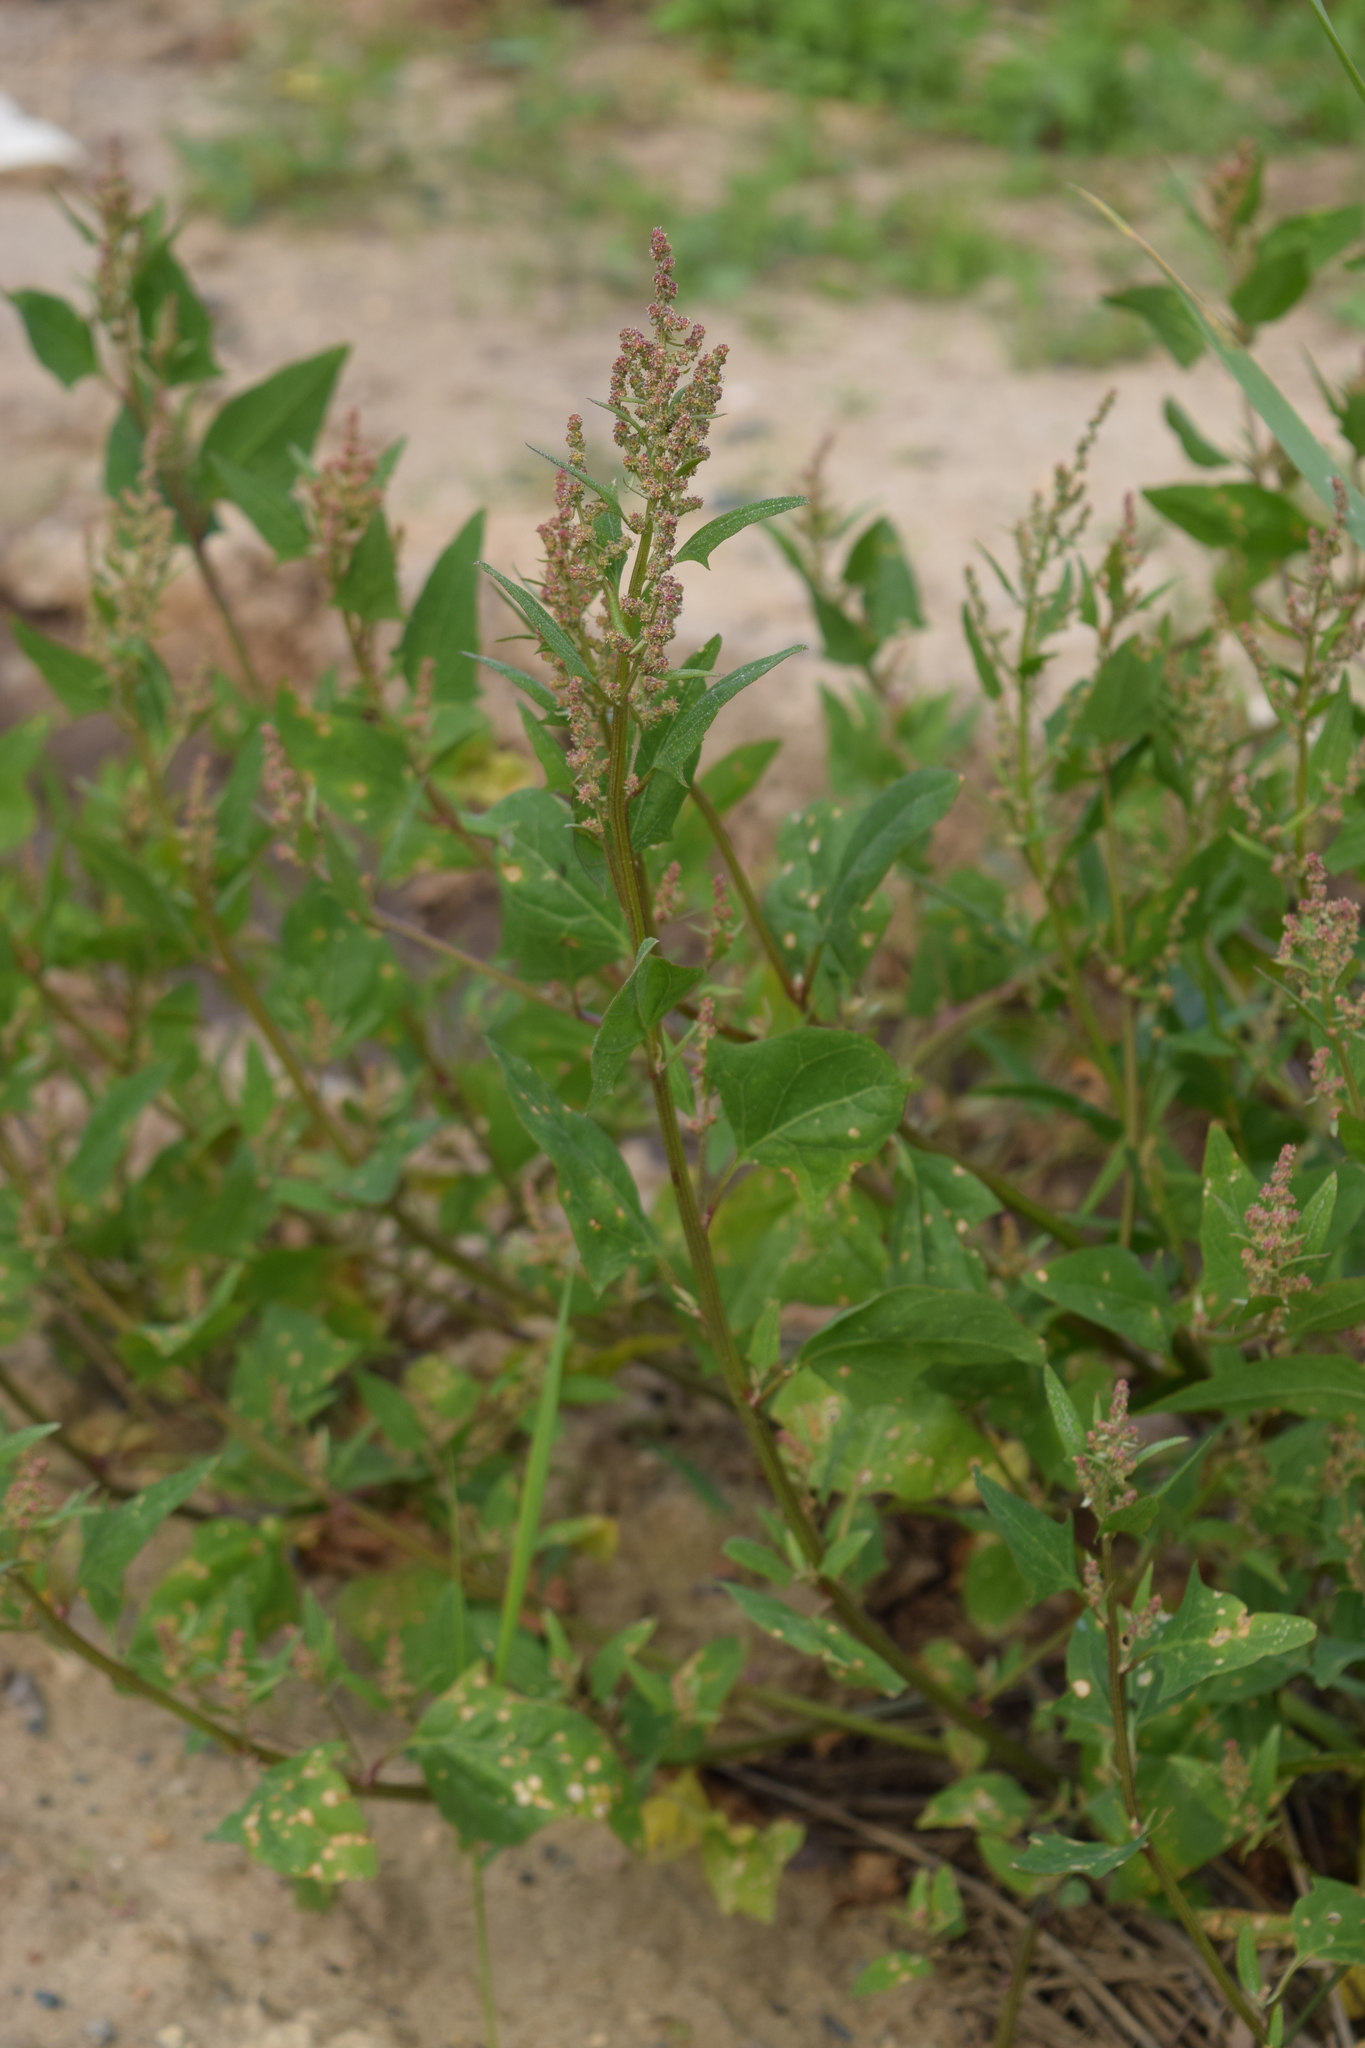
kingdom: Plantae
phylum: Tracheophyta
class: Magnoliopsida
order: Caryophyllales
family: Amaranthaceae
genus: Atriplex
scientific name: Atriplex prostrata
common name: Spear-leaved orache
